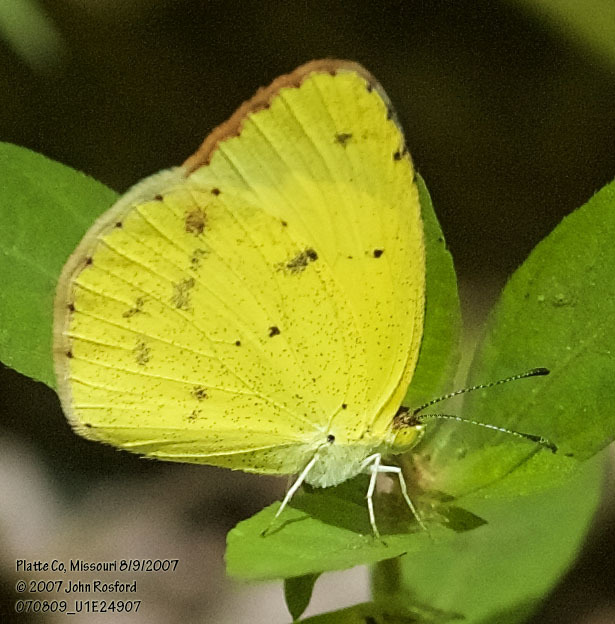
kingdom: Animalia
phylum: Arthropoda
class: Insecta
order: Lepidoptera
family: Pieridae
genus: Pyrisitia
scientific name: Pyrisitia lisa
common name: Little yellow
